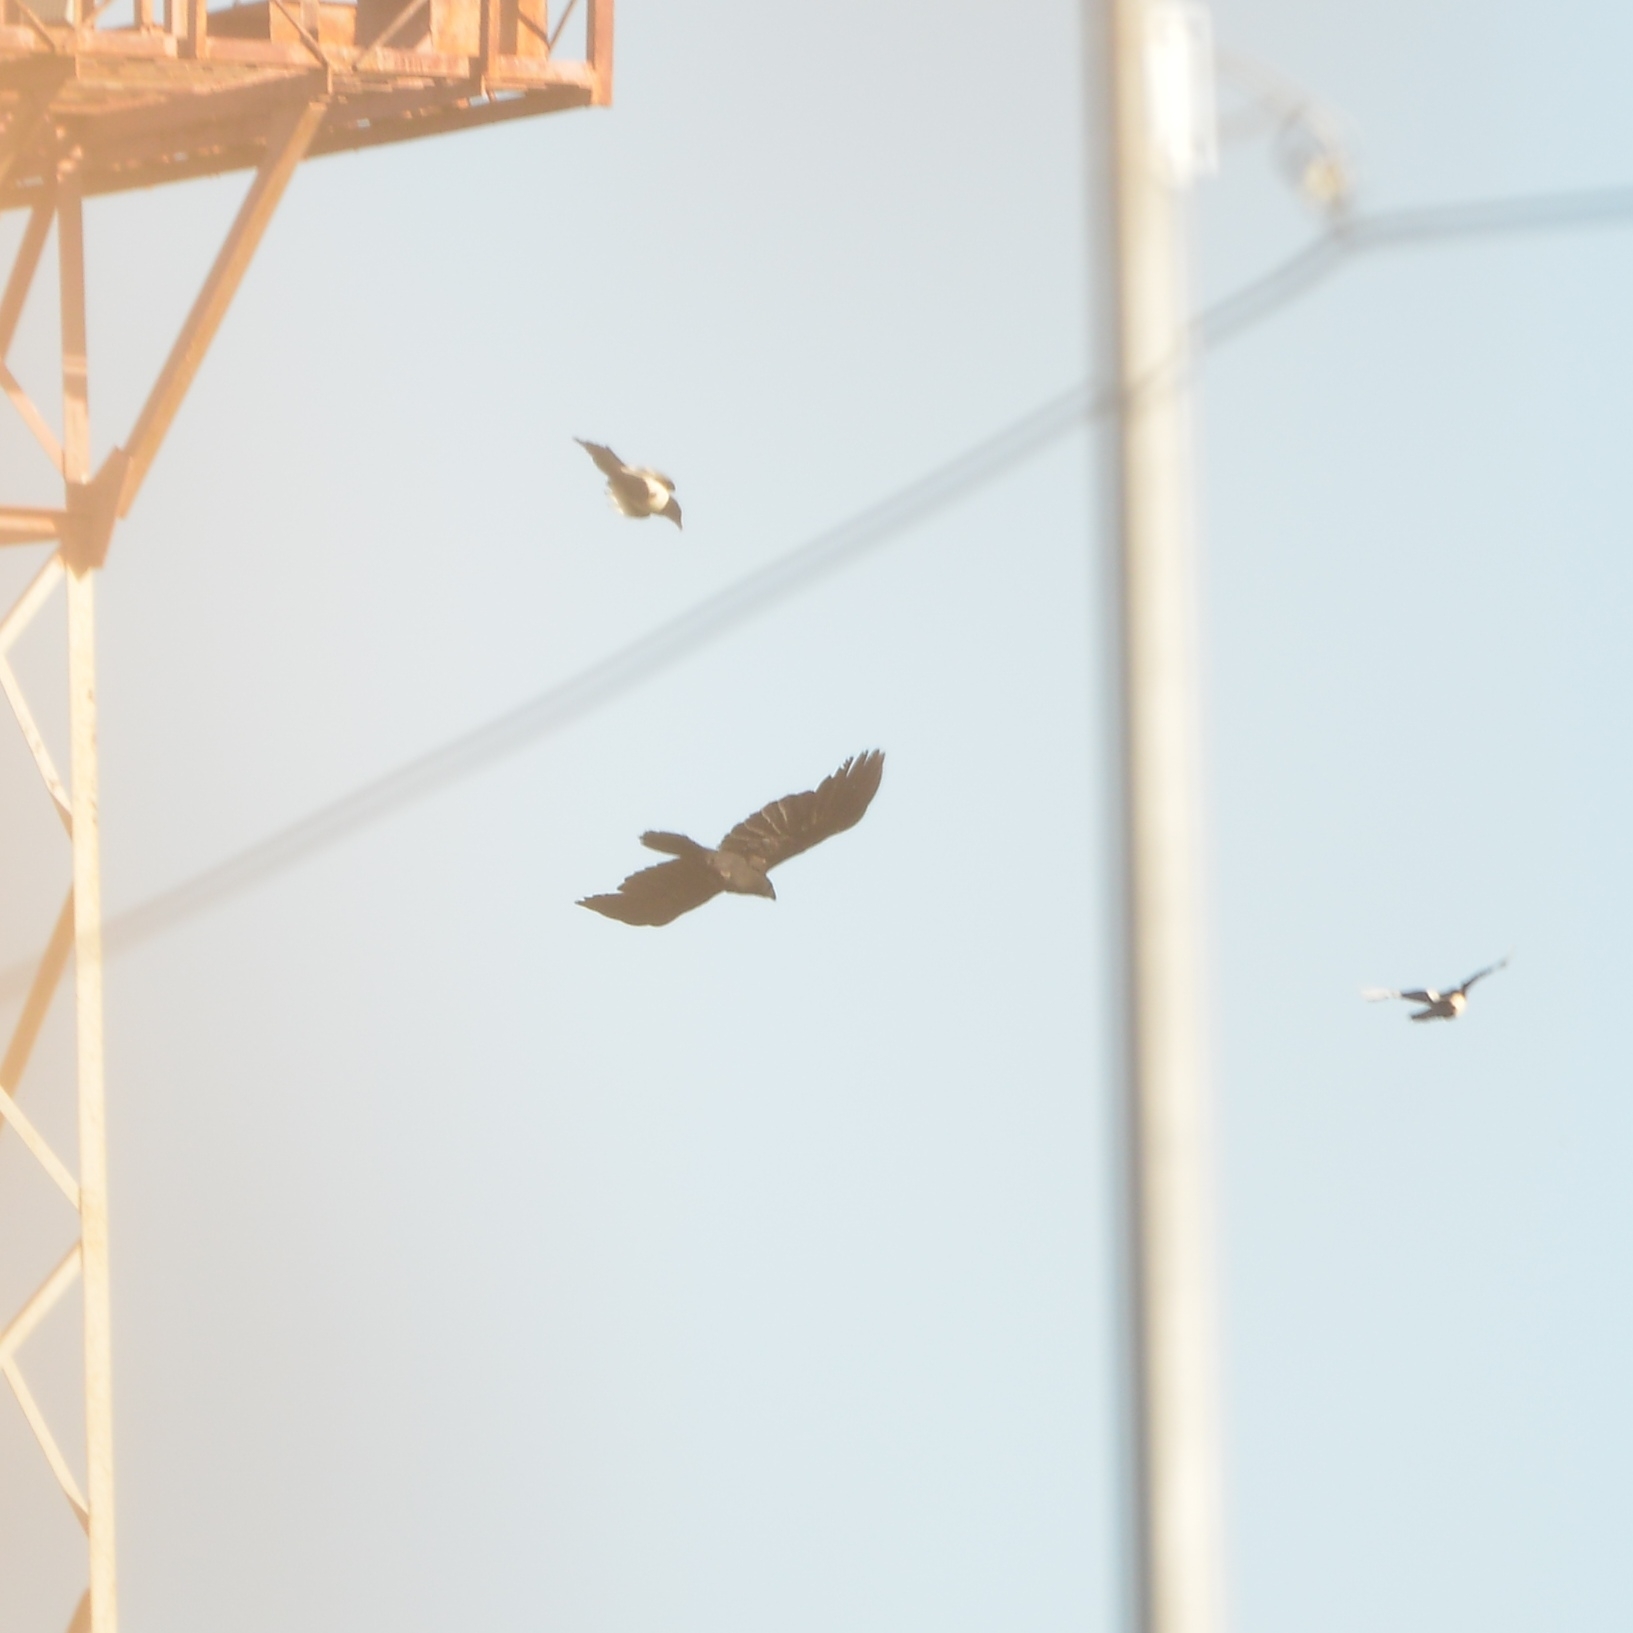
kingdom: Animalia
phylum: Chordata
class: Aves
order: Passeriformes
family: Corvidae
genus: Corvus
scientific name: Corvus macrorhynchos
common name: Large-billed crow
